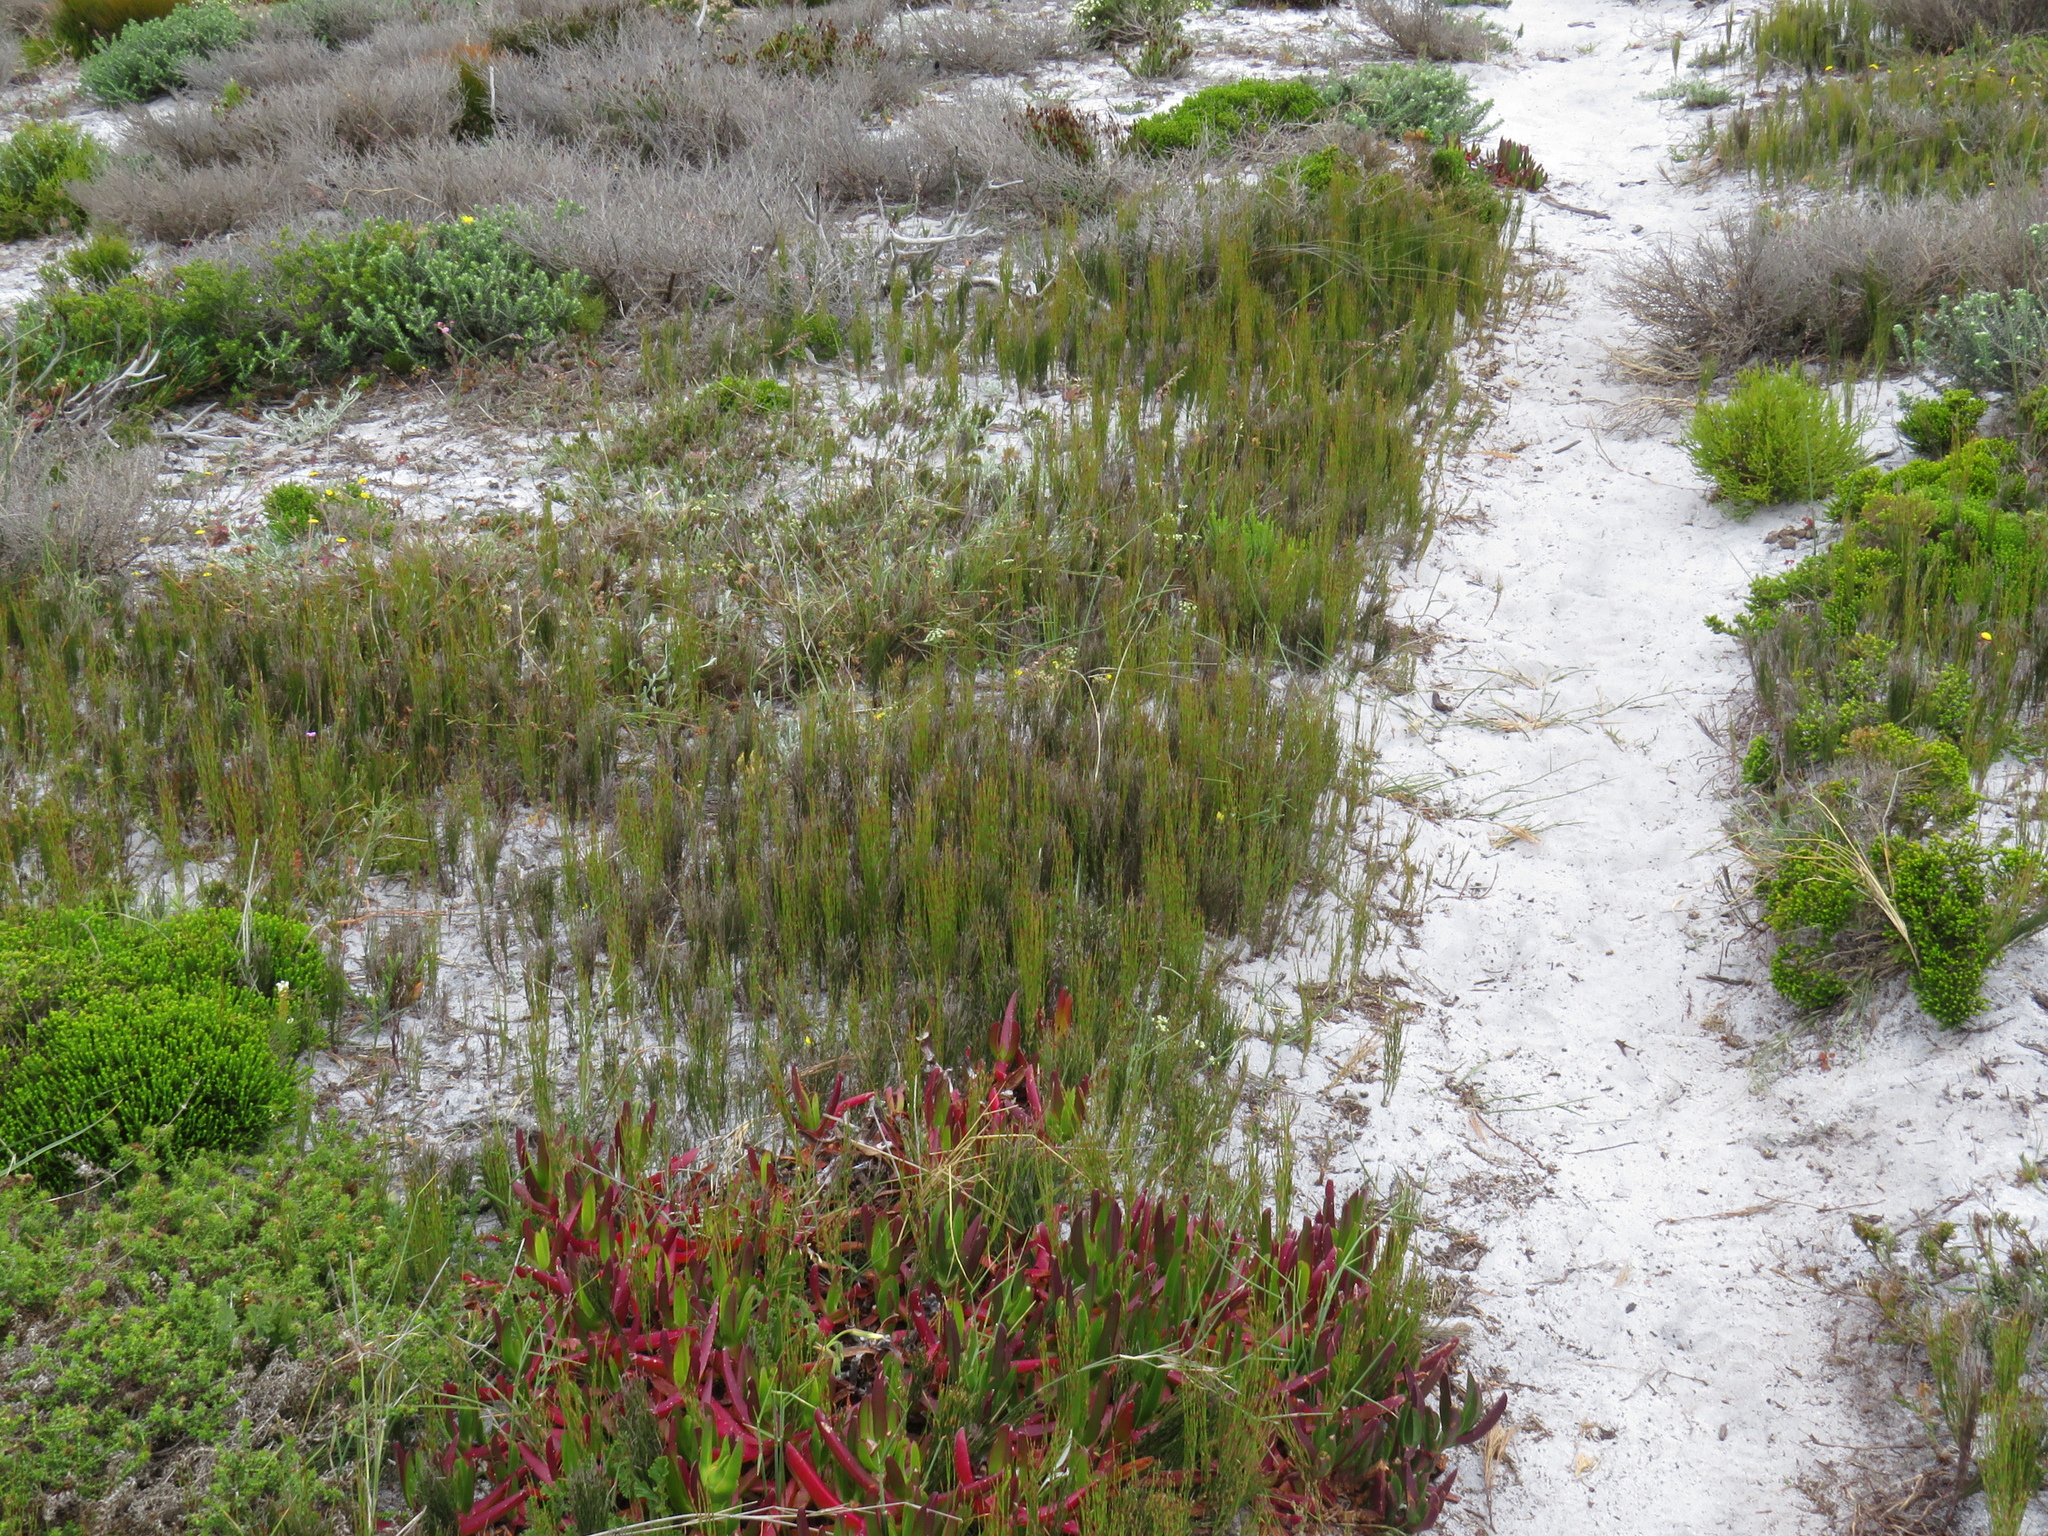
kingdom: Plantae
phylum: Tracheophyta
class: Liliopsida
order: Poales
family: Restionaceae
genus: Restio
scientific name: Restio eleocharis
